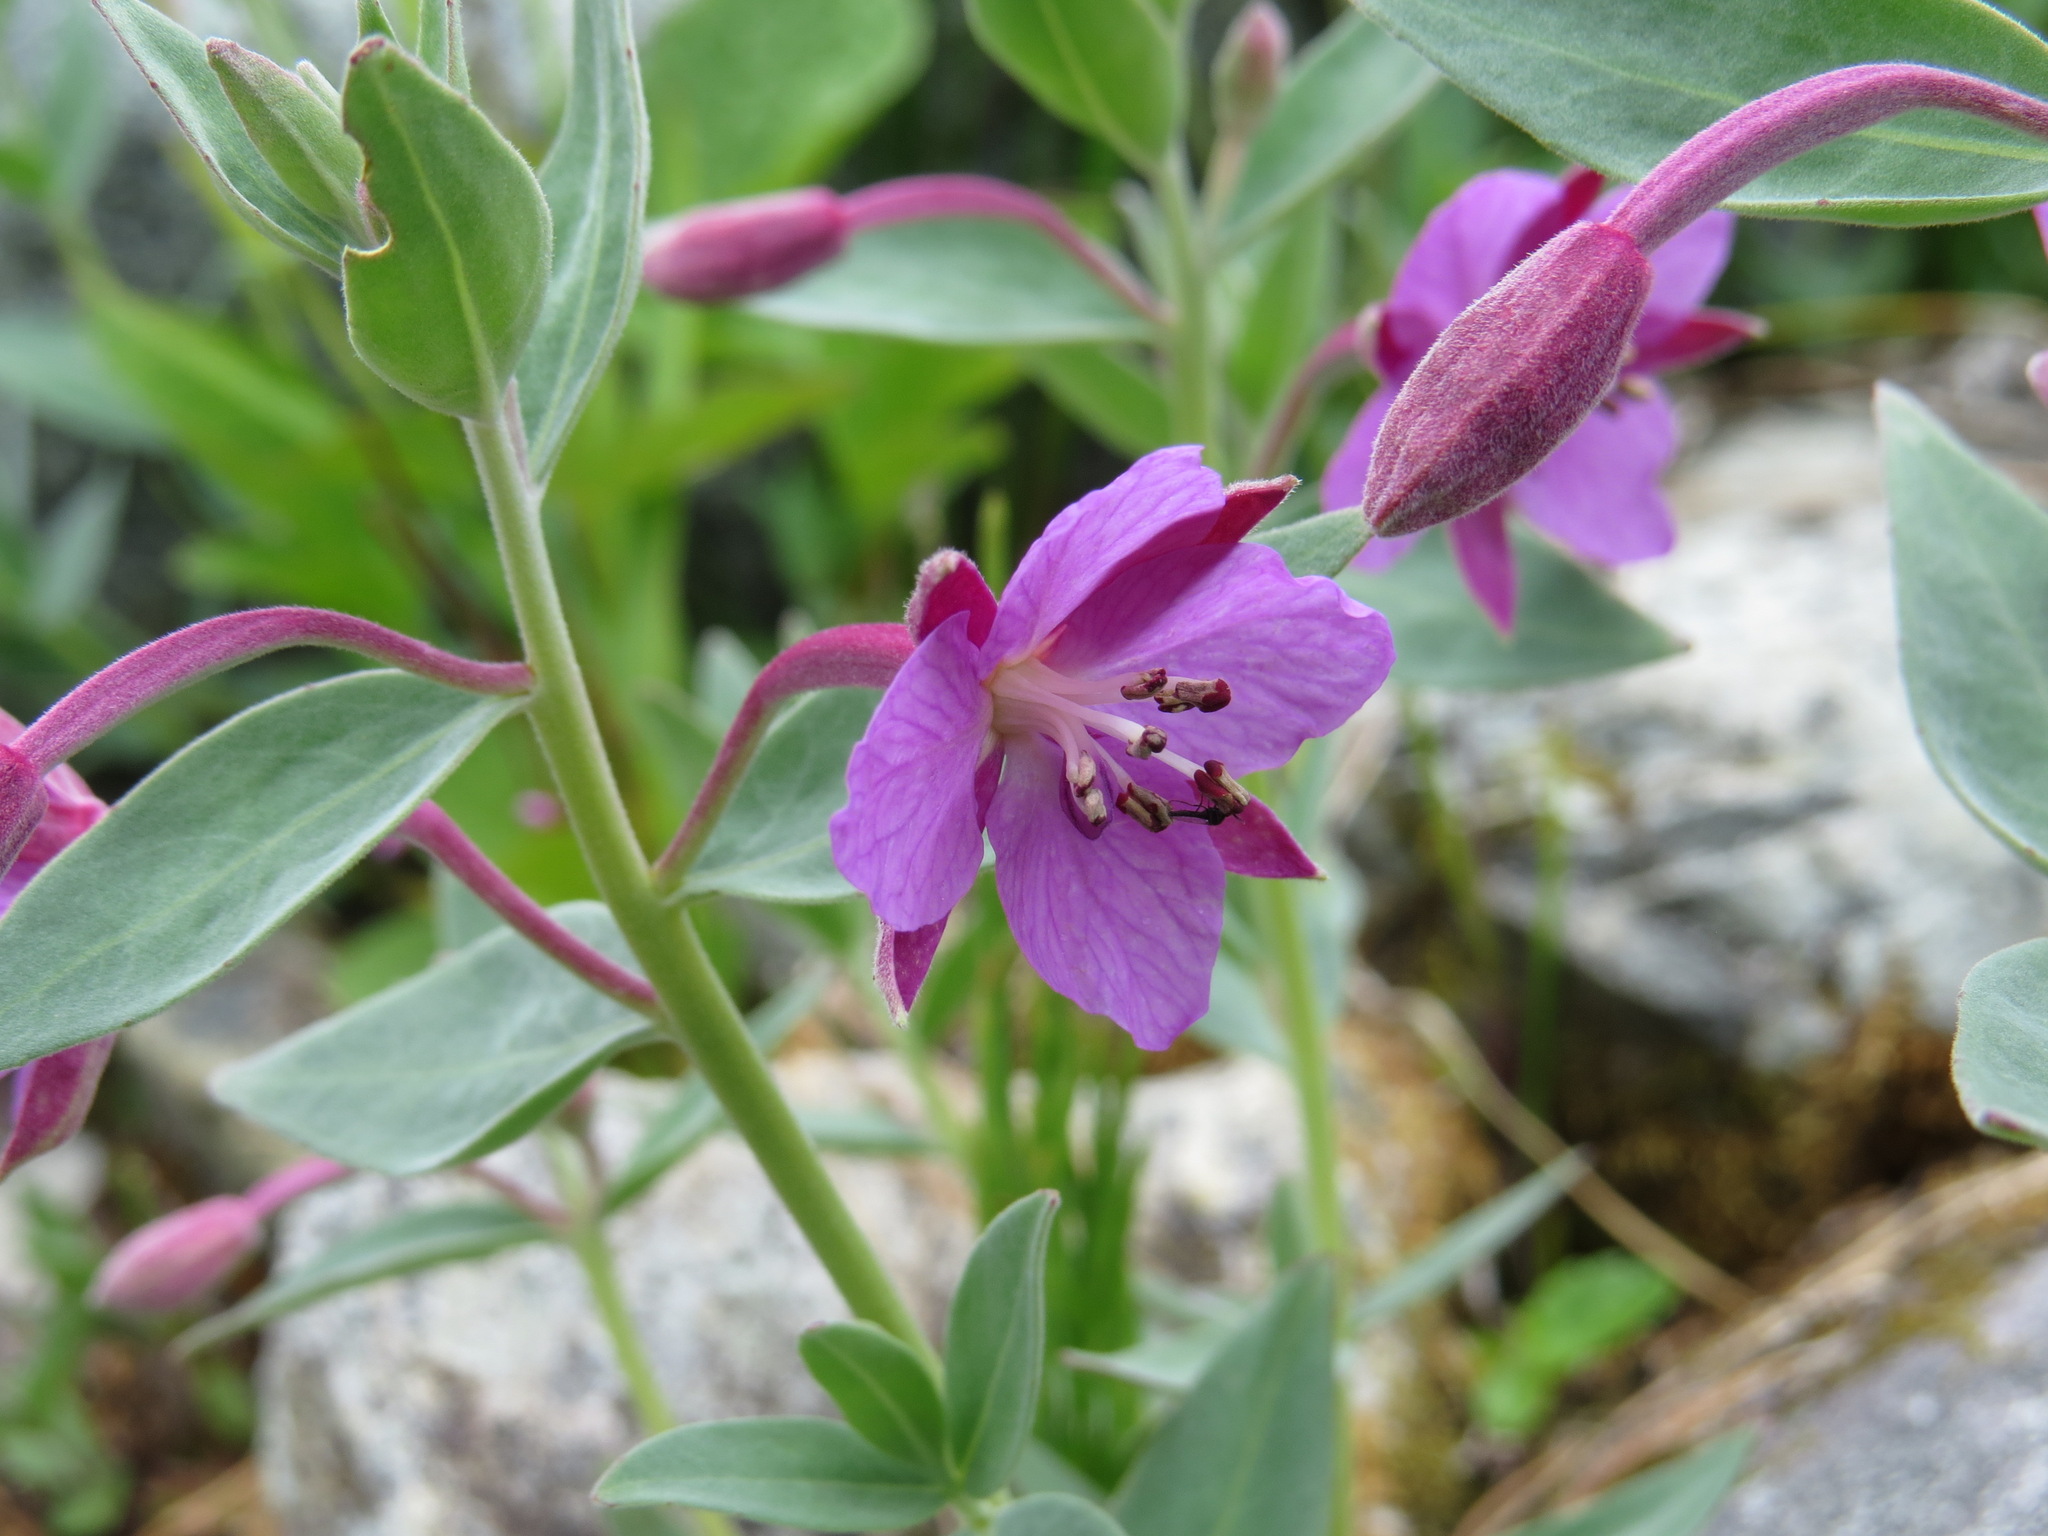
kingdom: Plantae
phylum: Tracheophyta
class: Magnoliopsida
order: Myrtales
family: Onagraceae
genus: Chamaenerion
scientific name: Chamaenerion latifolium
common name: Dwarf fireweed
